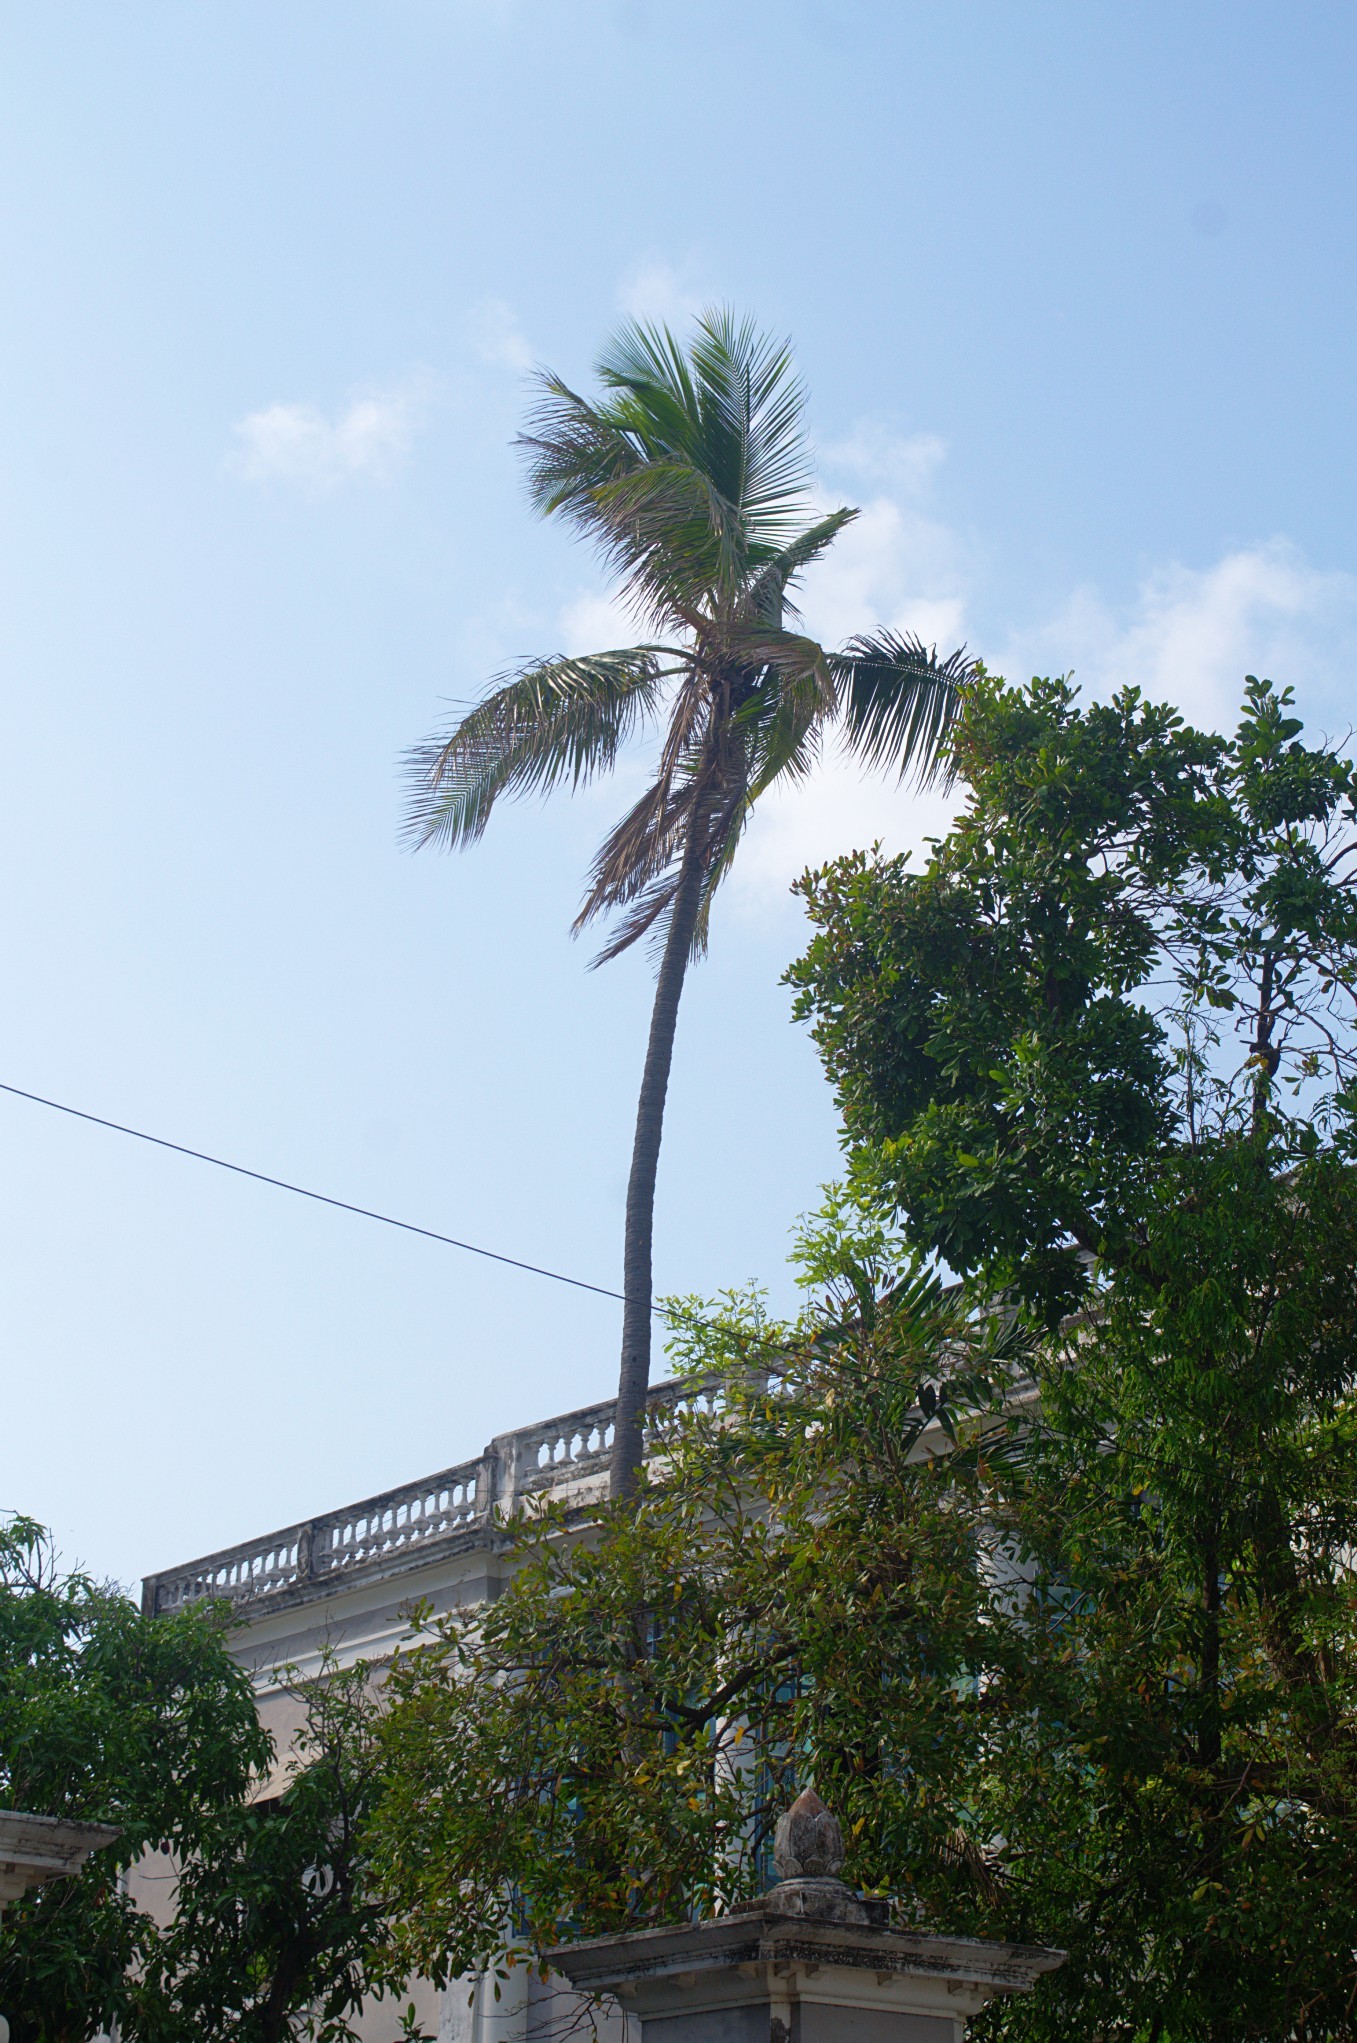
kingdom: Plantae
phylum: Tracheophyta
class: Liliopsida
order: Arecales
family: Arecaceae
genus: Cocos
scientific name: Cocos nucifera
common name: Coconut palm
